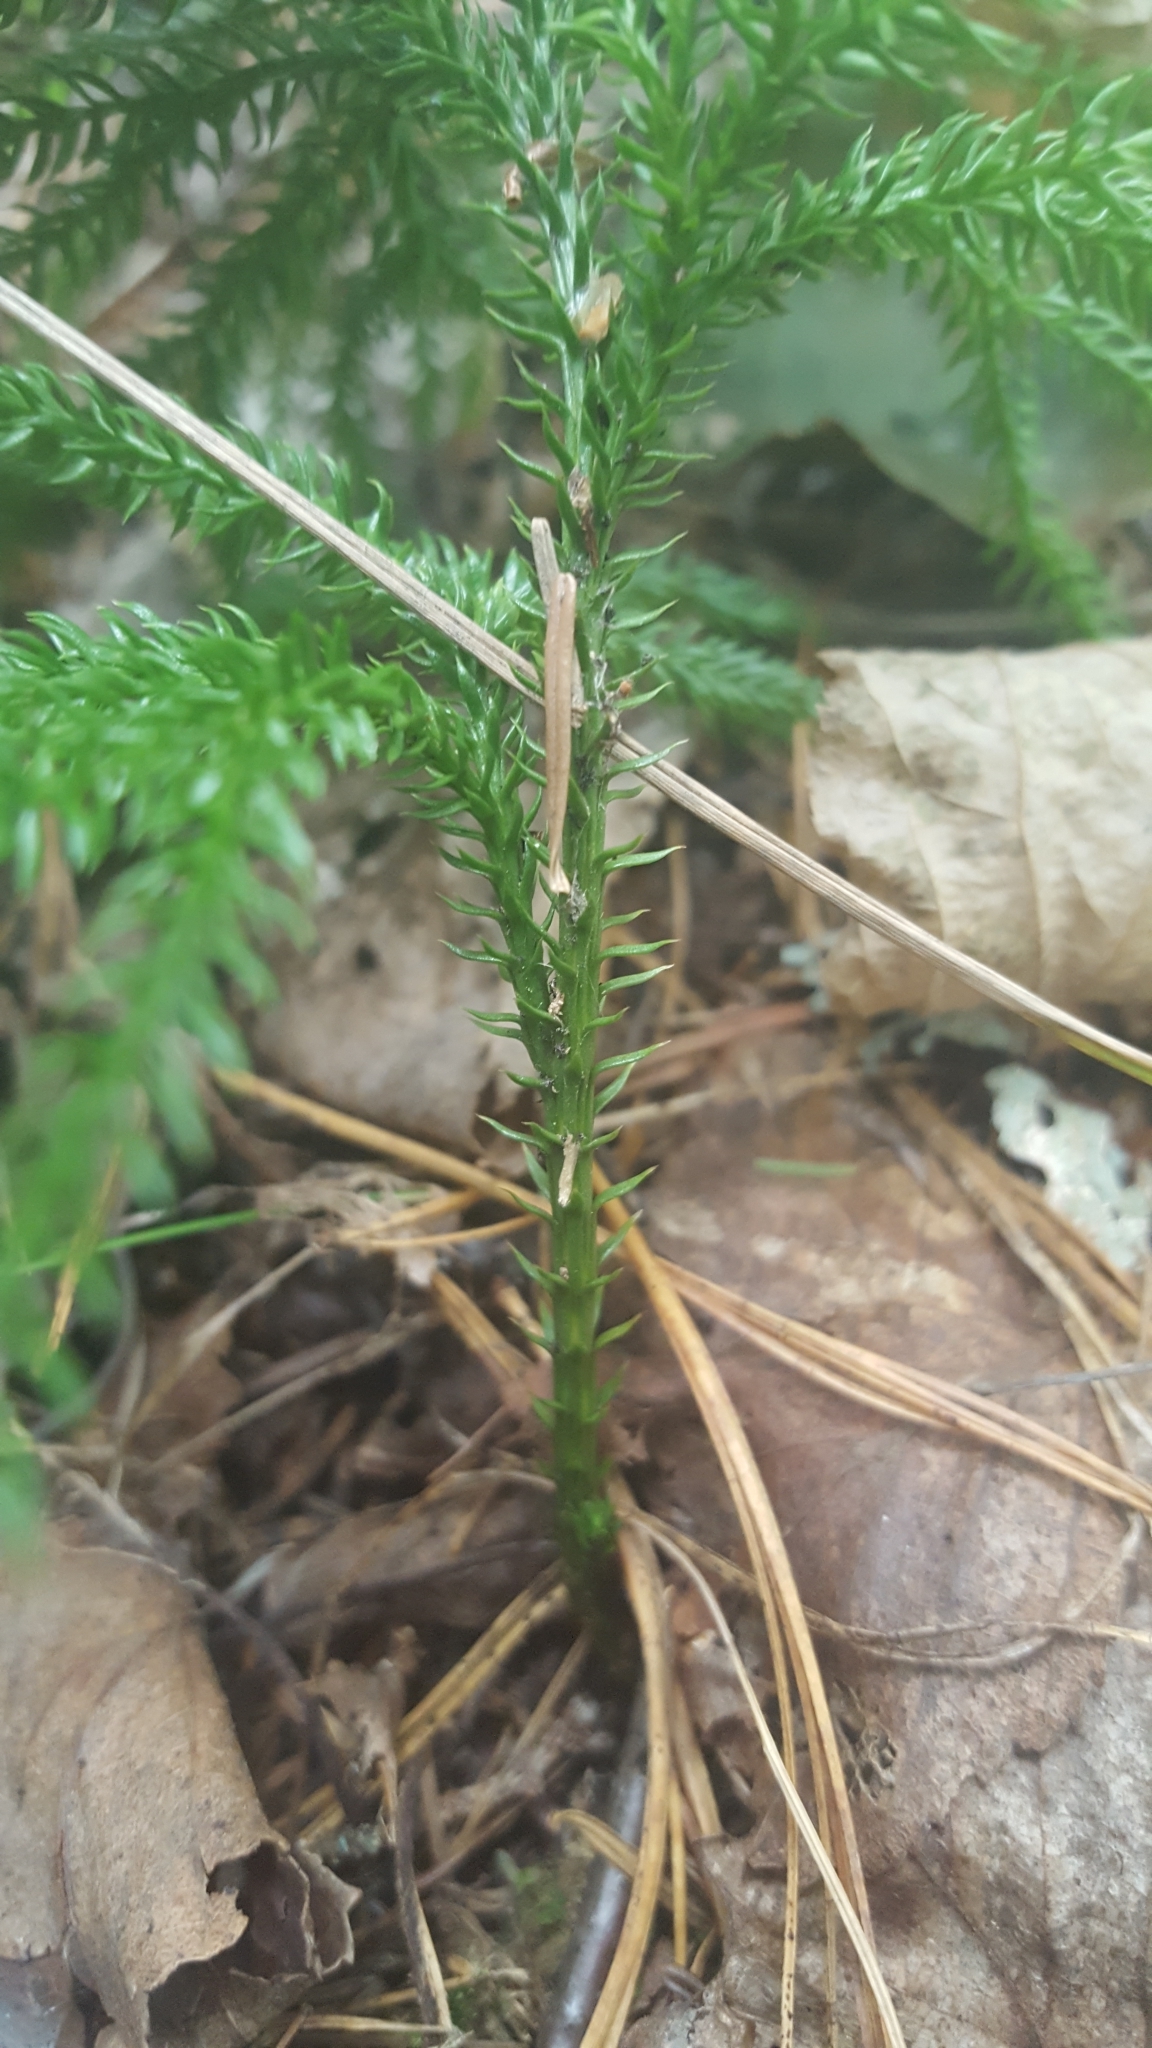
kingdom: Plantae
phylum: Tracheophyta
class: Lycopodiopsida
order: Lycopodiales
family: Lycopodiaceae
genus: Dendrolycopodium
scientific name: Dendrolycopodium dendroideum
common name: Northern tree-clubmoss
